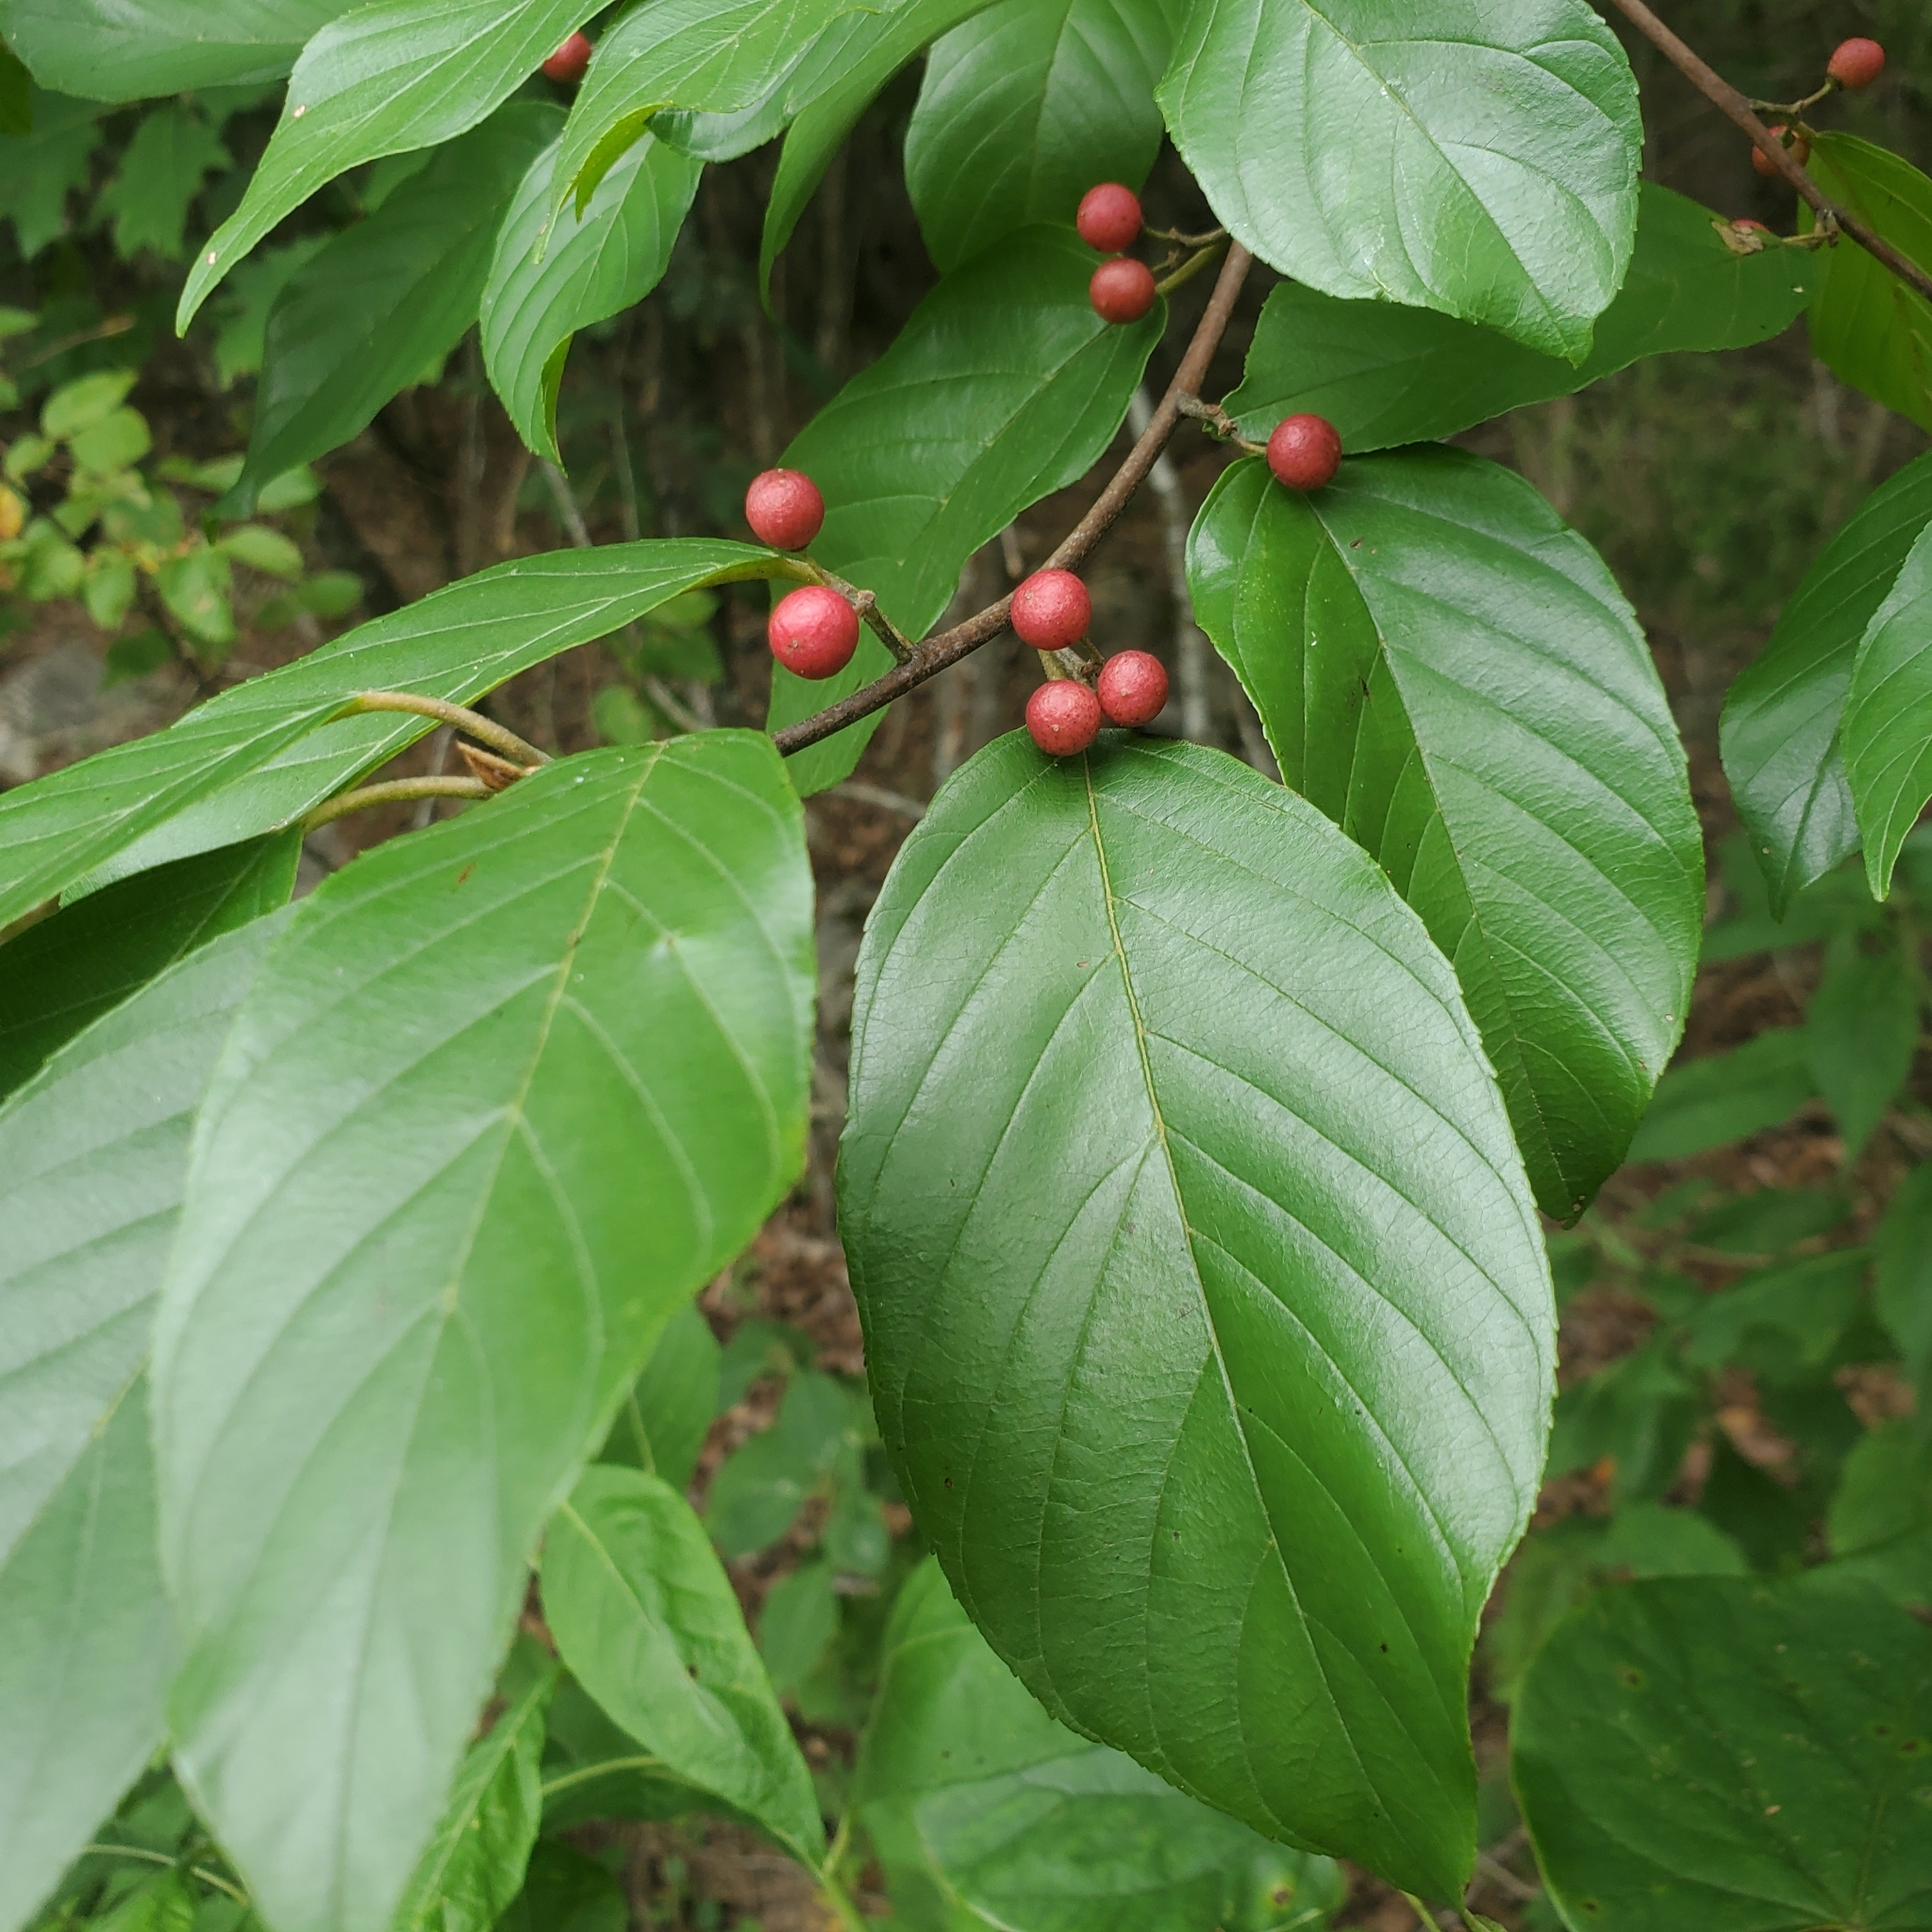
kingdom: Plantae
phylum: Tracheophyta
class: Magnoliopsida
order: Rosales
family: Rhamnaceae
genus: Frangula
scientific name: Frangula caroliniana
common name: Carolina buckthorn
